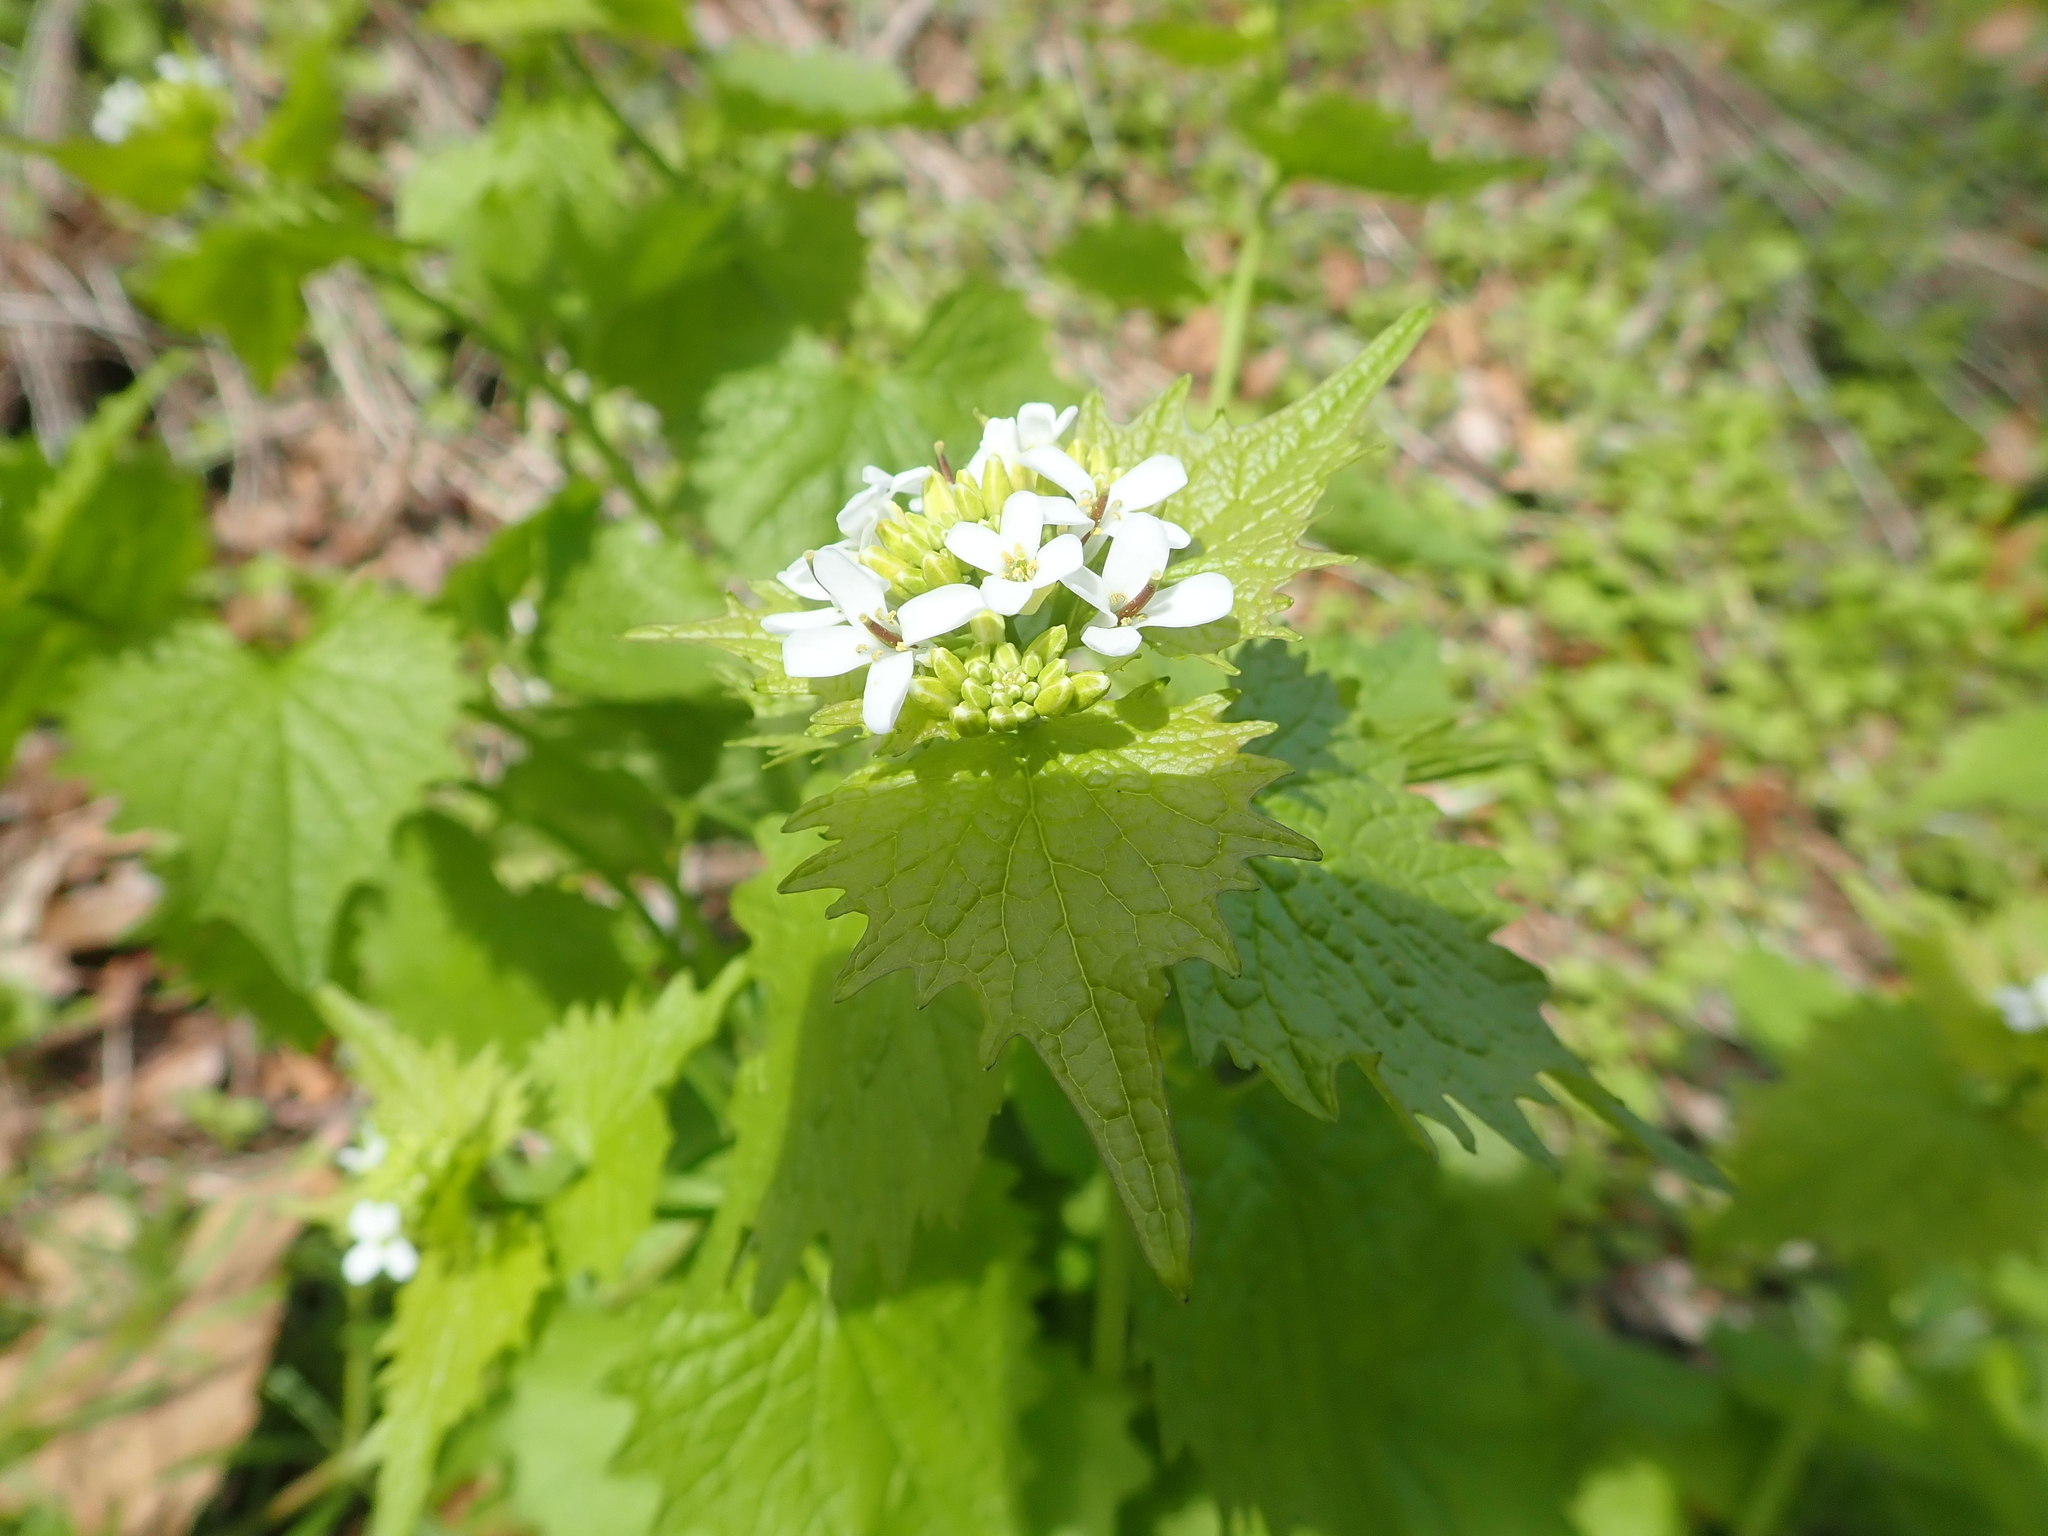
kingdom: Plantae
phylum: Tracheophyta
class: Magnoliopsida
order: Brassicales
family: Brassicaceae
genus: Alliaria
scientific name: Alliaria petiolata
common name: Garlic mustard
